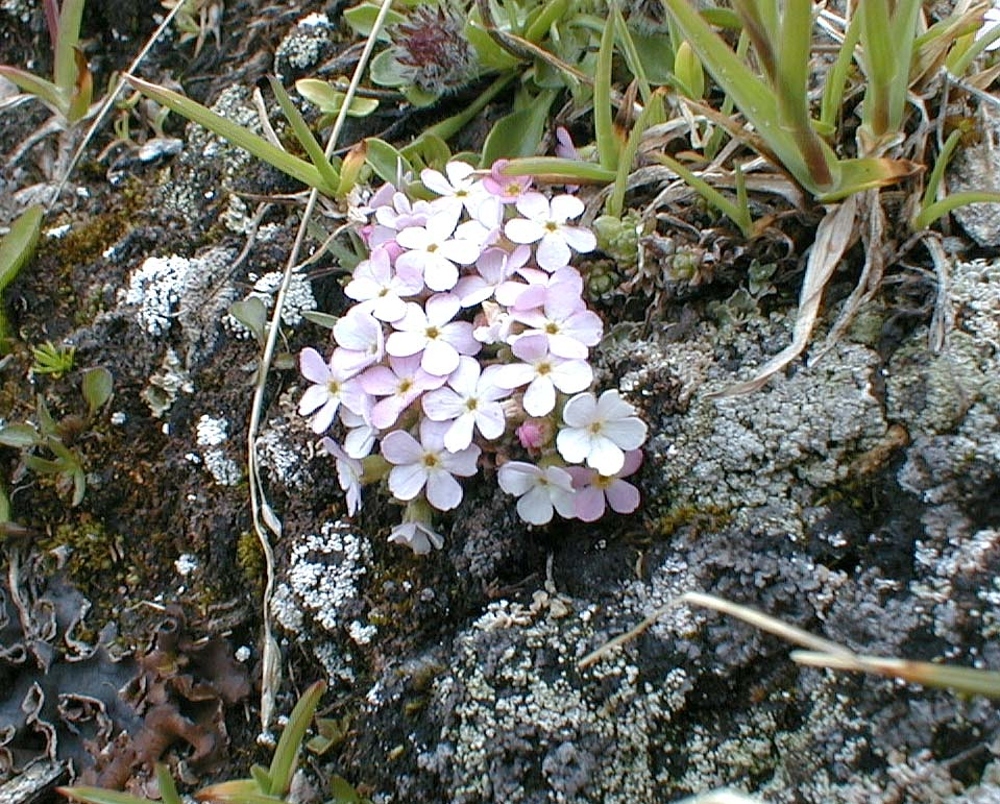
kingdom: Plantae
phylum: Tracheophyta
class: Magnoliopsida
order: Ericales
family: Primulaceae
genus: Androsace
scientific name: Androsace alpina
